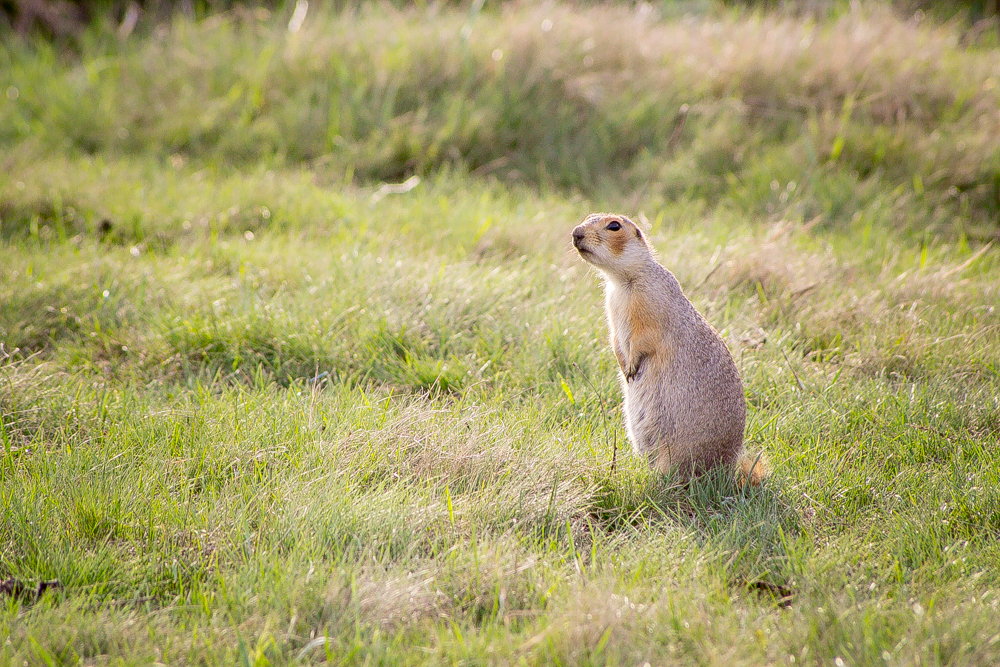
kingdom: Animalia
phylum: Chordata
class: Mammalia
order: Rodentia
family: Sciuridae
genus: Spermophilus
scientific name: Spermophilus major
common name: Russet ground squirrel
